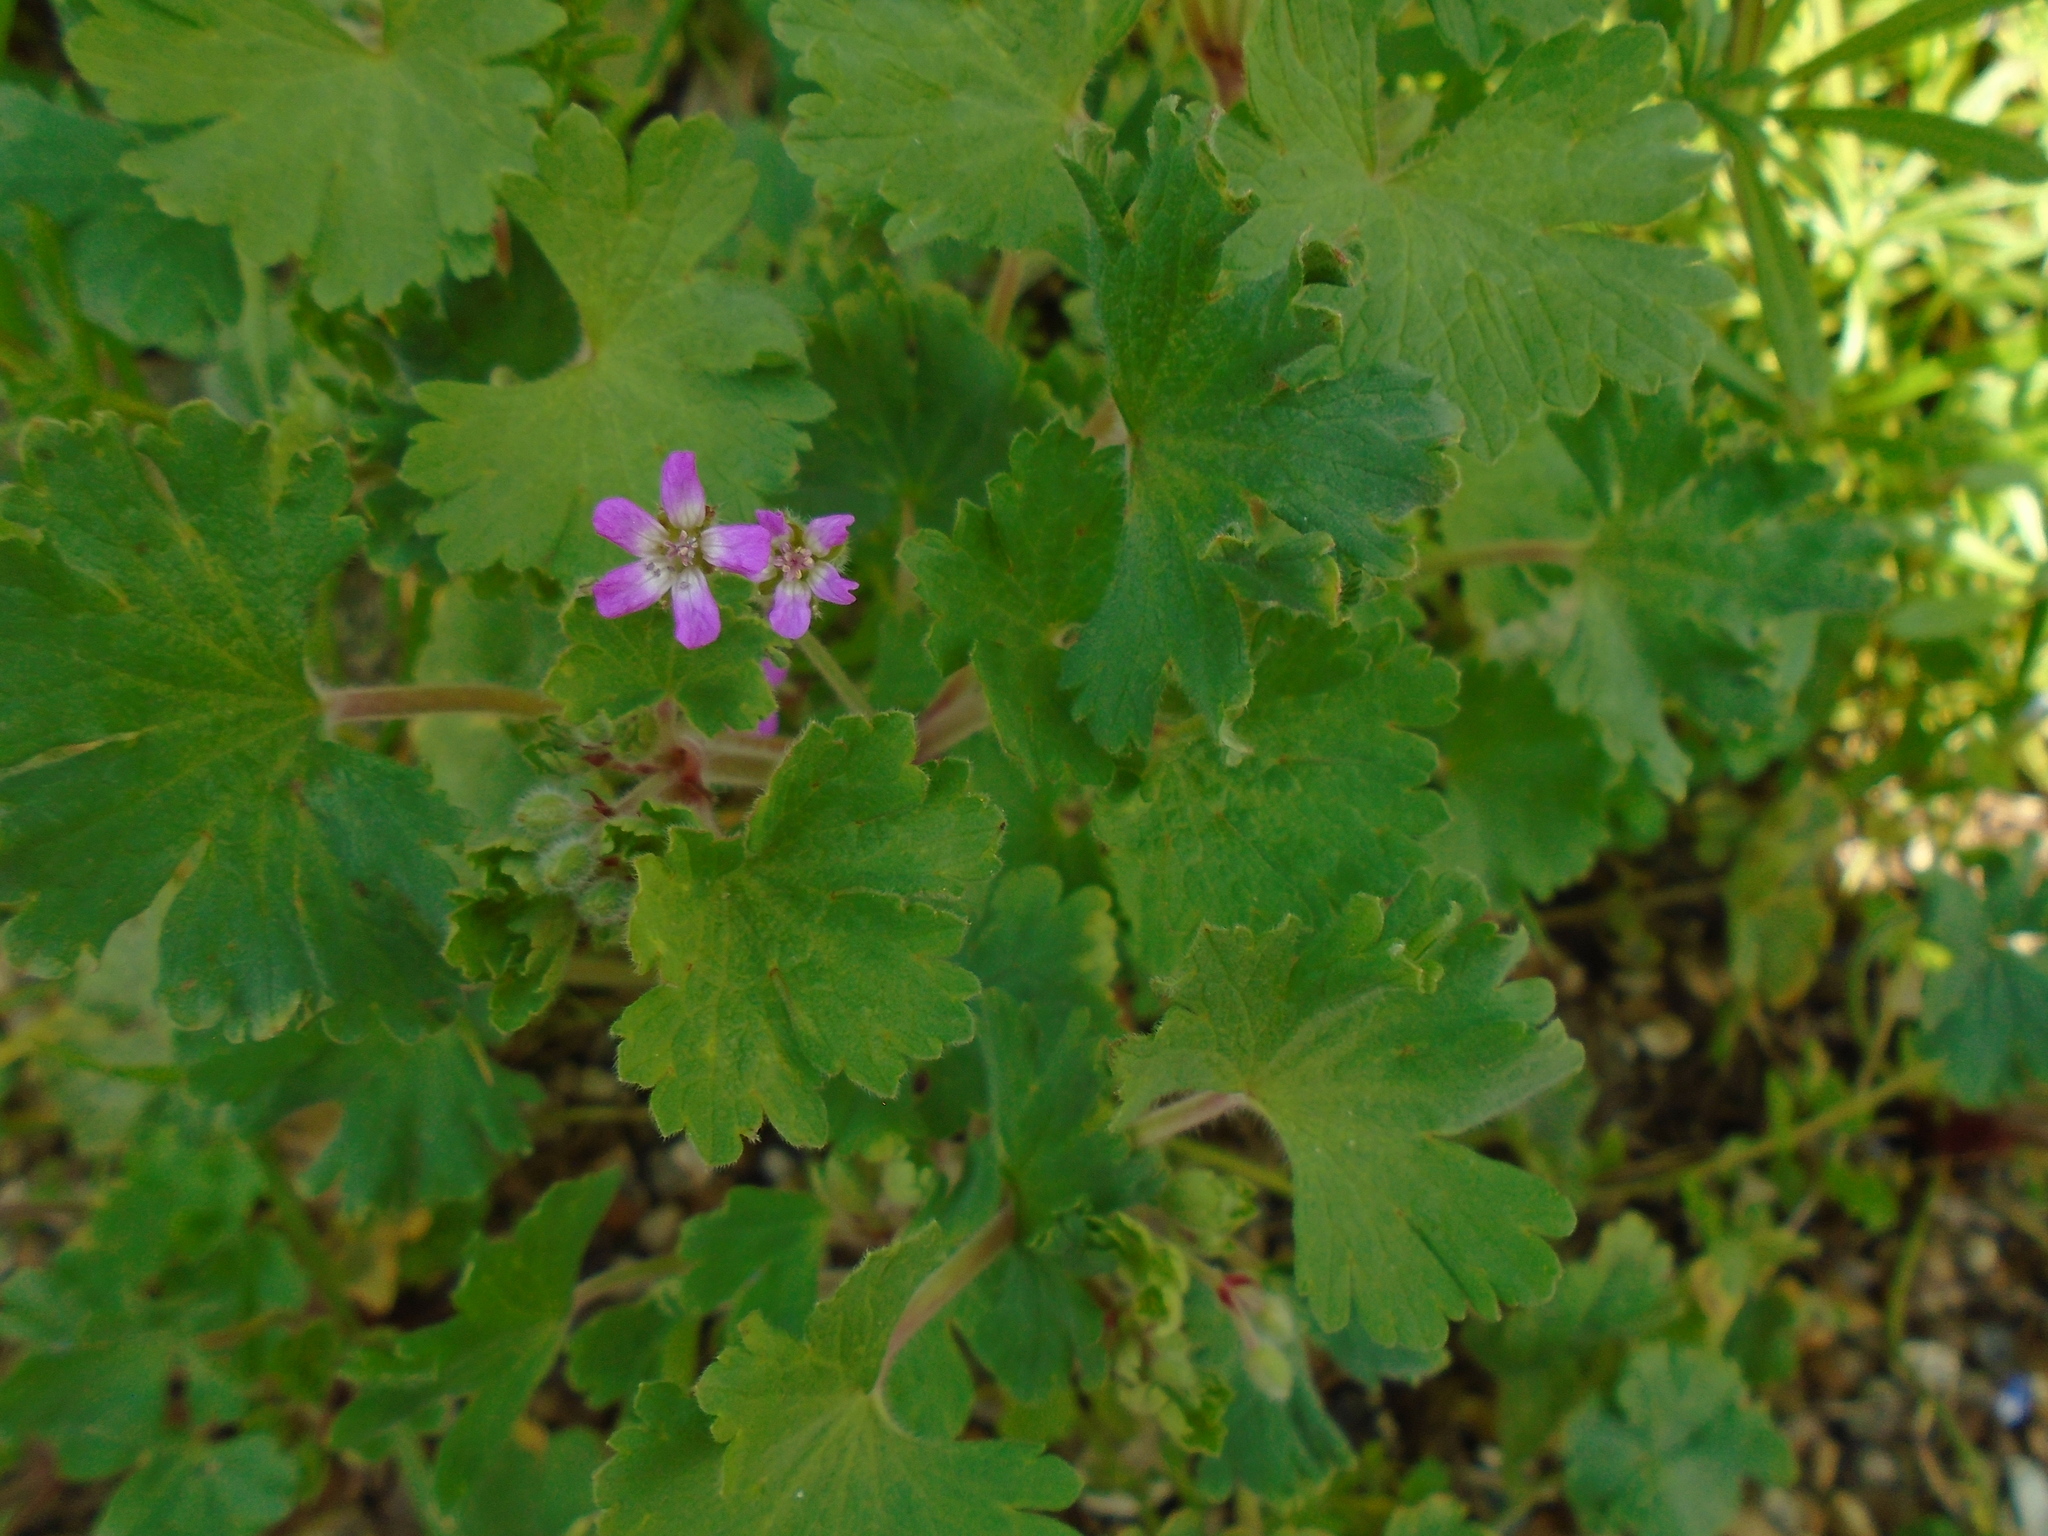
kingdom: Plantae
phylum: Tracheophyta
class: Magnoliopsida
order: Geraniales
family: Geraniaceae
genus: Geranium
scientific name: Geranium rotundifolium
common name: Round-leaved crane's-bill
